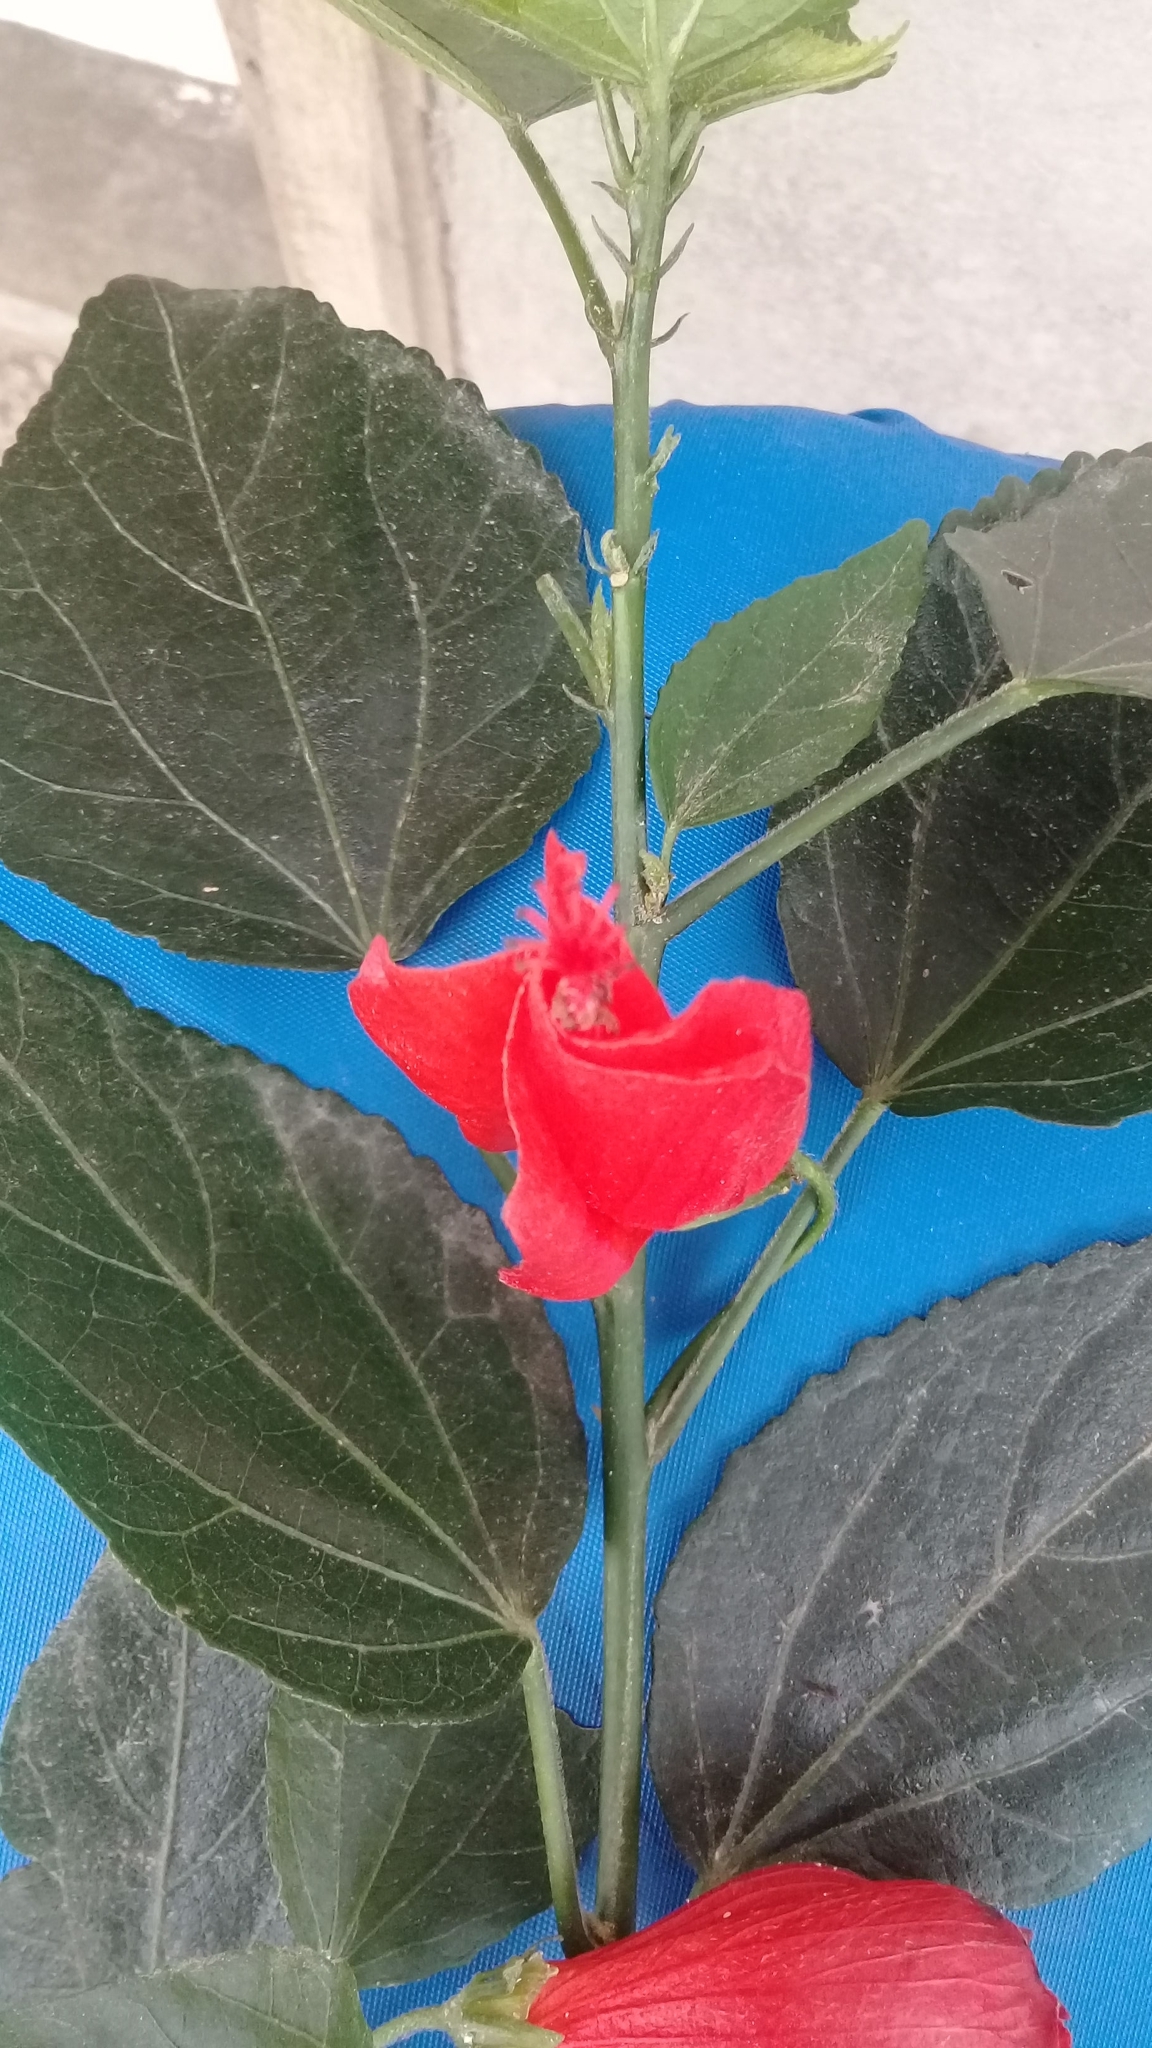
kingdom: Plantae
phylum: Tracheophyta
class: Magnoliopsida
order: Malvales
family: Malvaceae
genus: Malvaviscus
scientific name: Malvaviscus penduliflorus
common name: Mazapan
